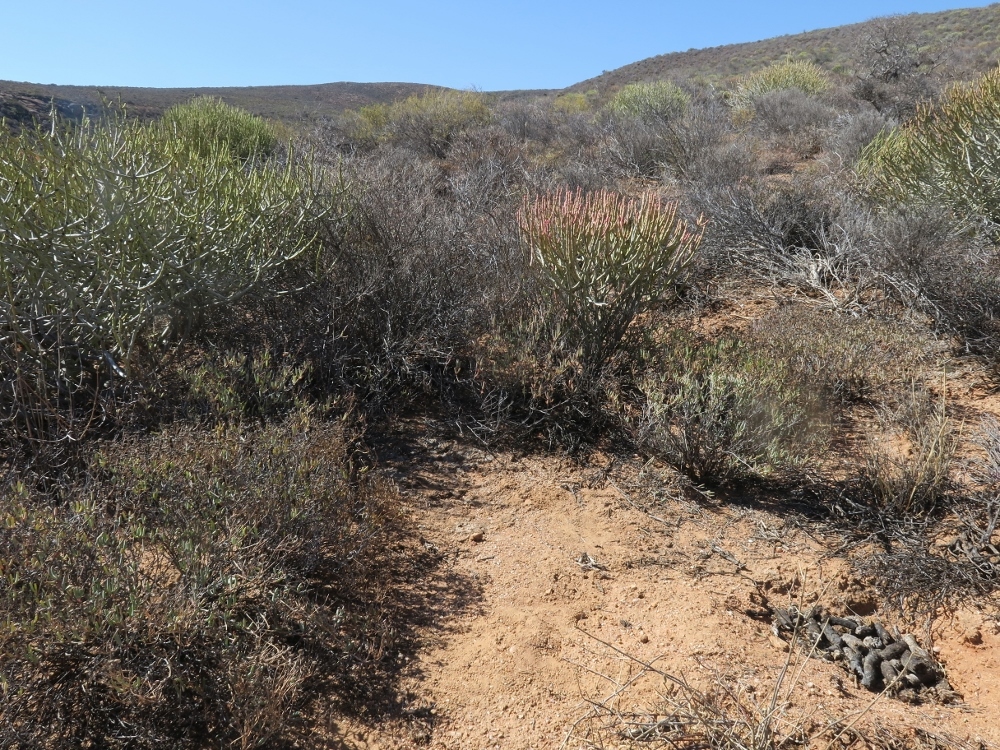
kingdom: Animalia
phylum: Chordata
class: Mammalia
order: Carnivora
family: Viverridae
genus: Genetta
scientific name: Genetta genetta
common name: Common genet
